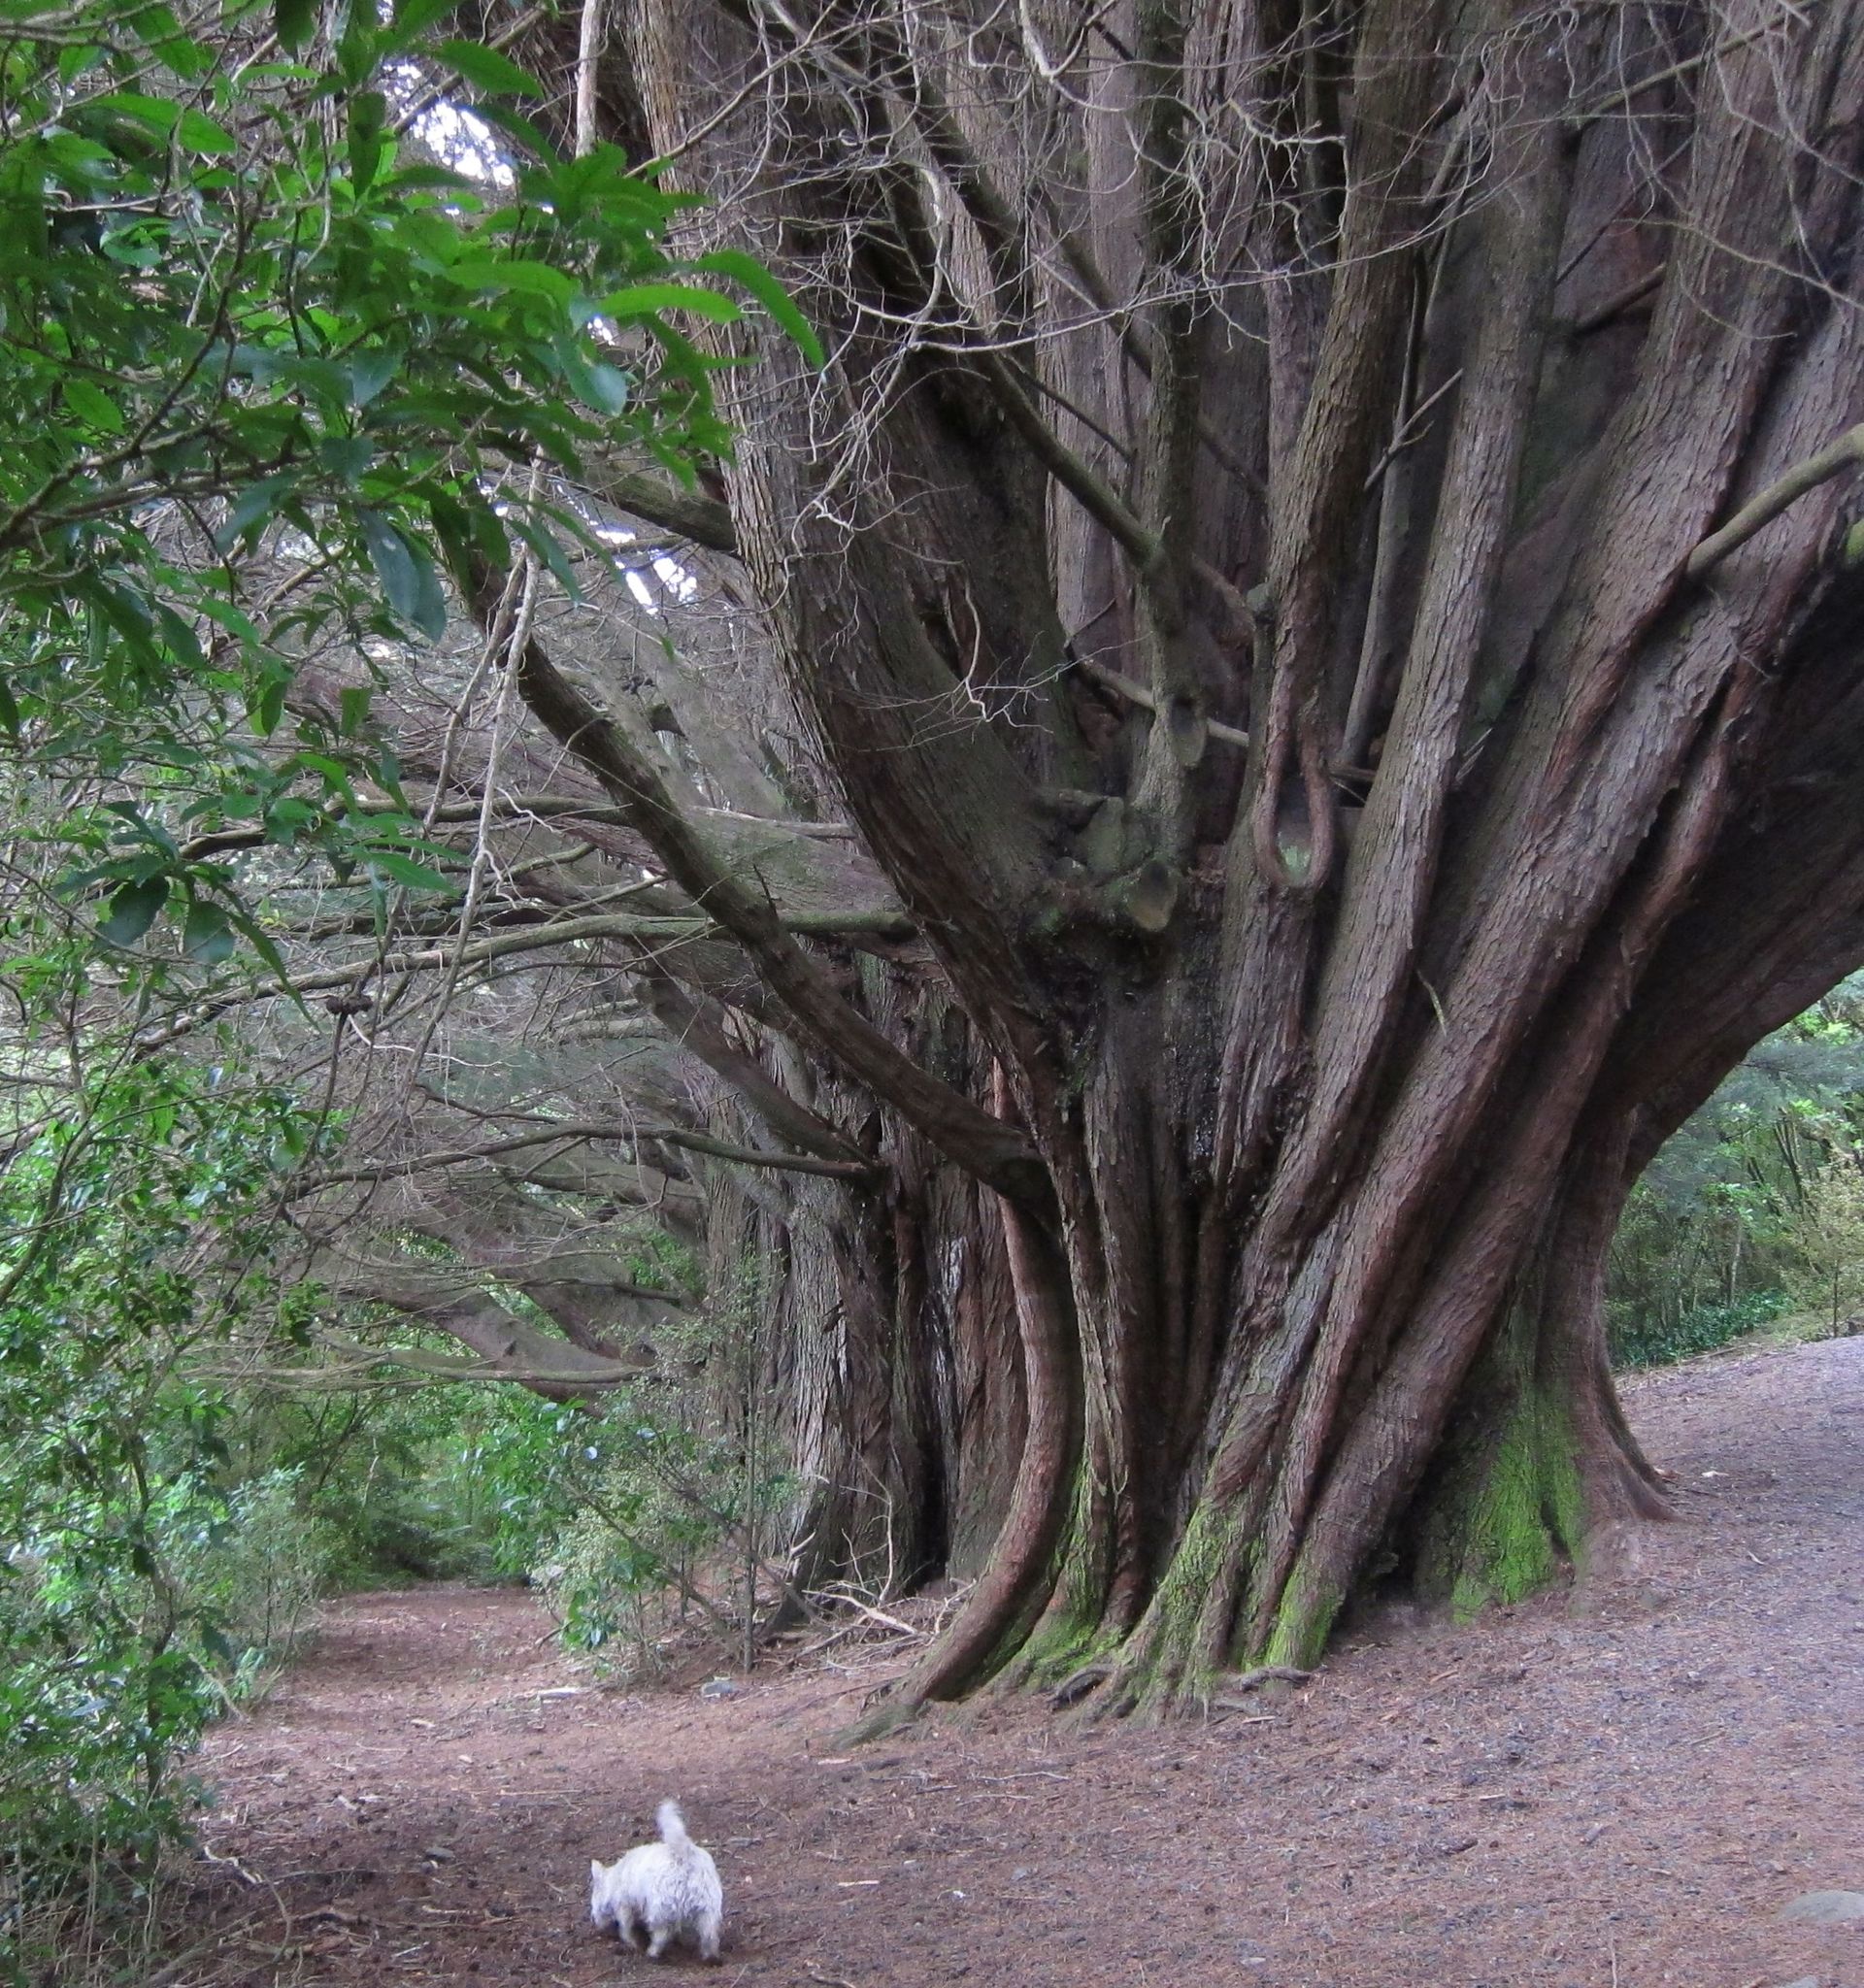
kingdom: Plantae
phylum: Tracheophyta
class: Pinopsida
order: Pinales
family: Cupressaceae
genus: Cupressus
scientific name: Cupressus macrocarpa
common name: Monterey cypress
